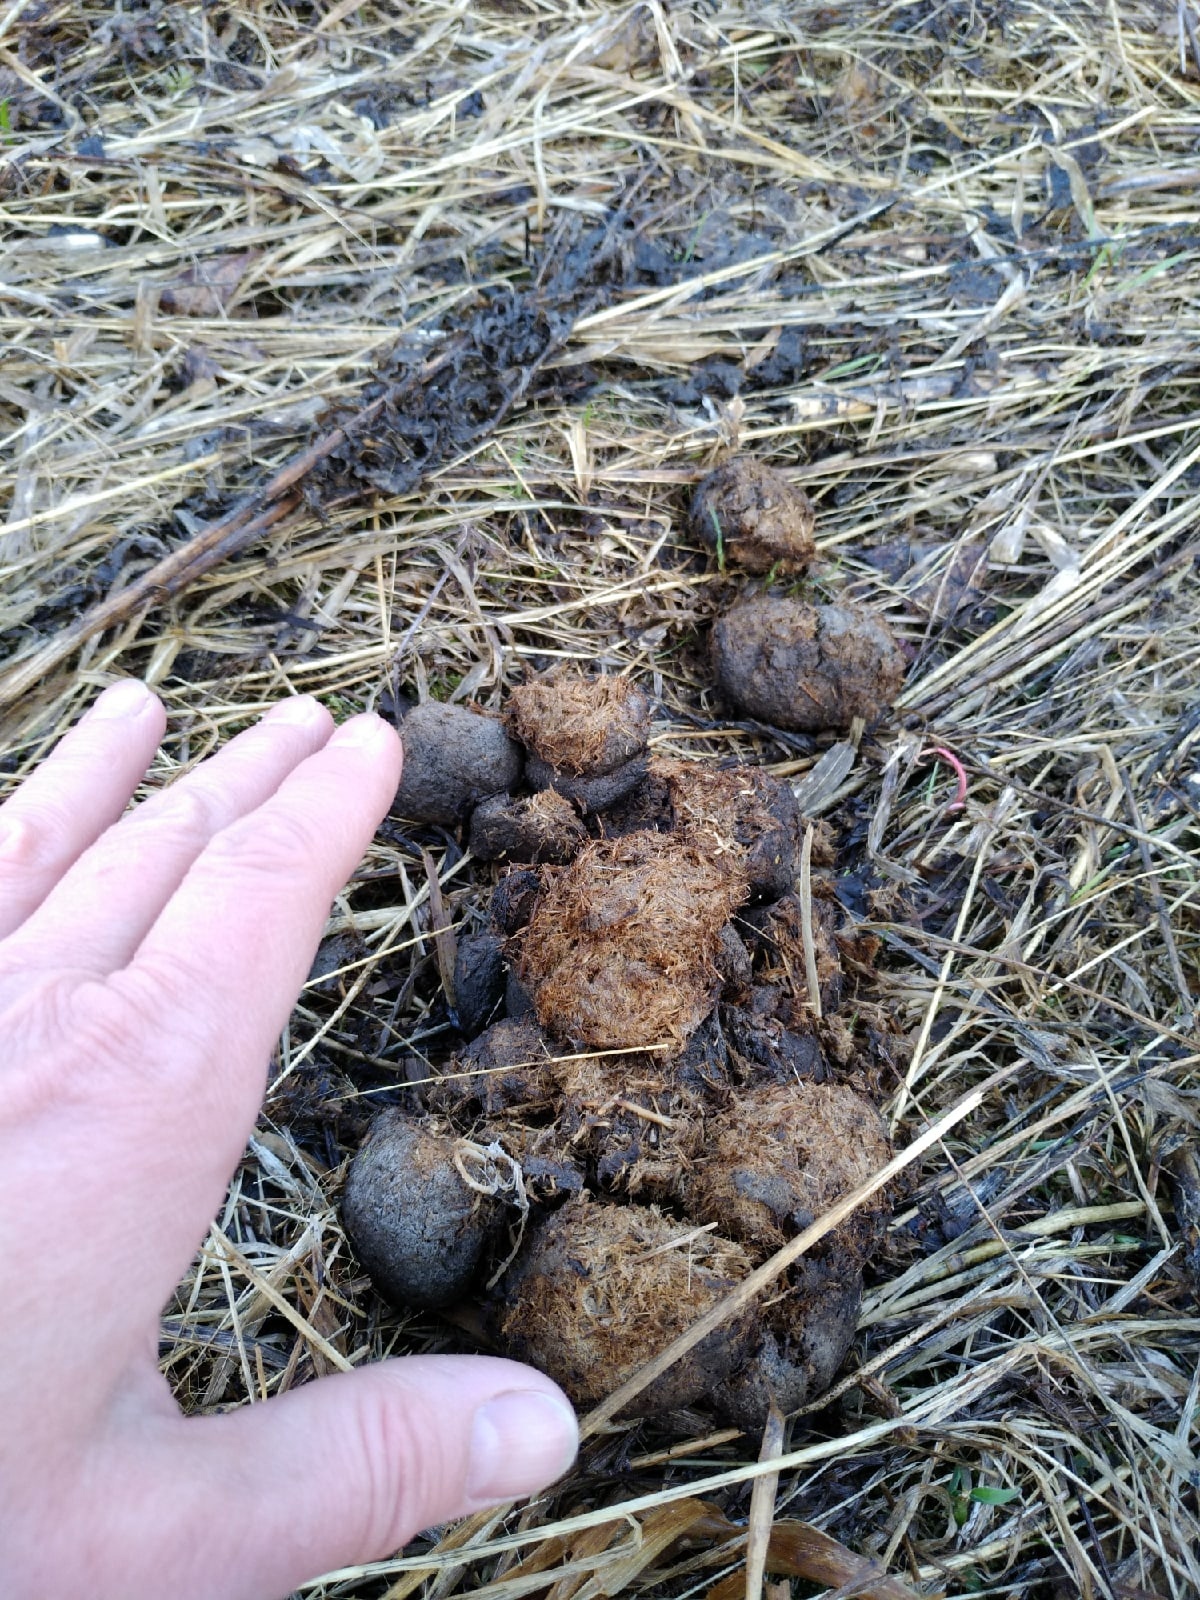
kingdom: Animalia
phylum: Chordata
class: Mammalia
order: Artiodactyla
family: Cervidae
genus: Alces
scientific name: Alces alces
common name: Moose
